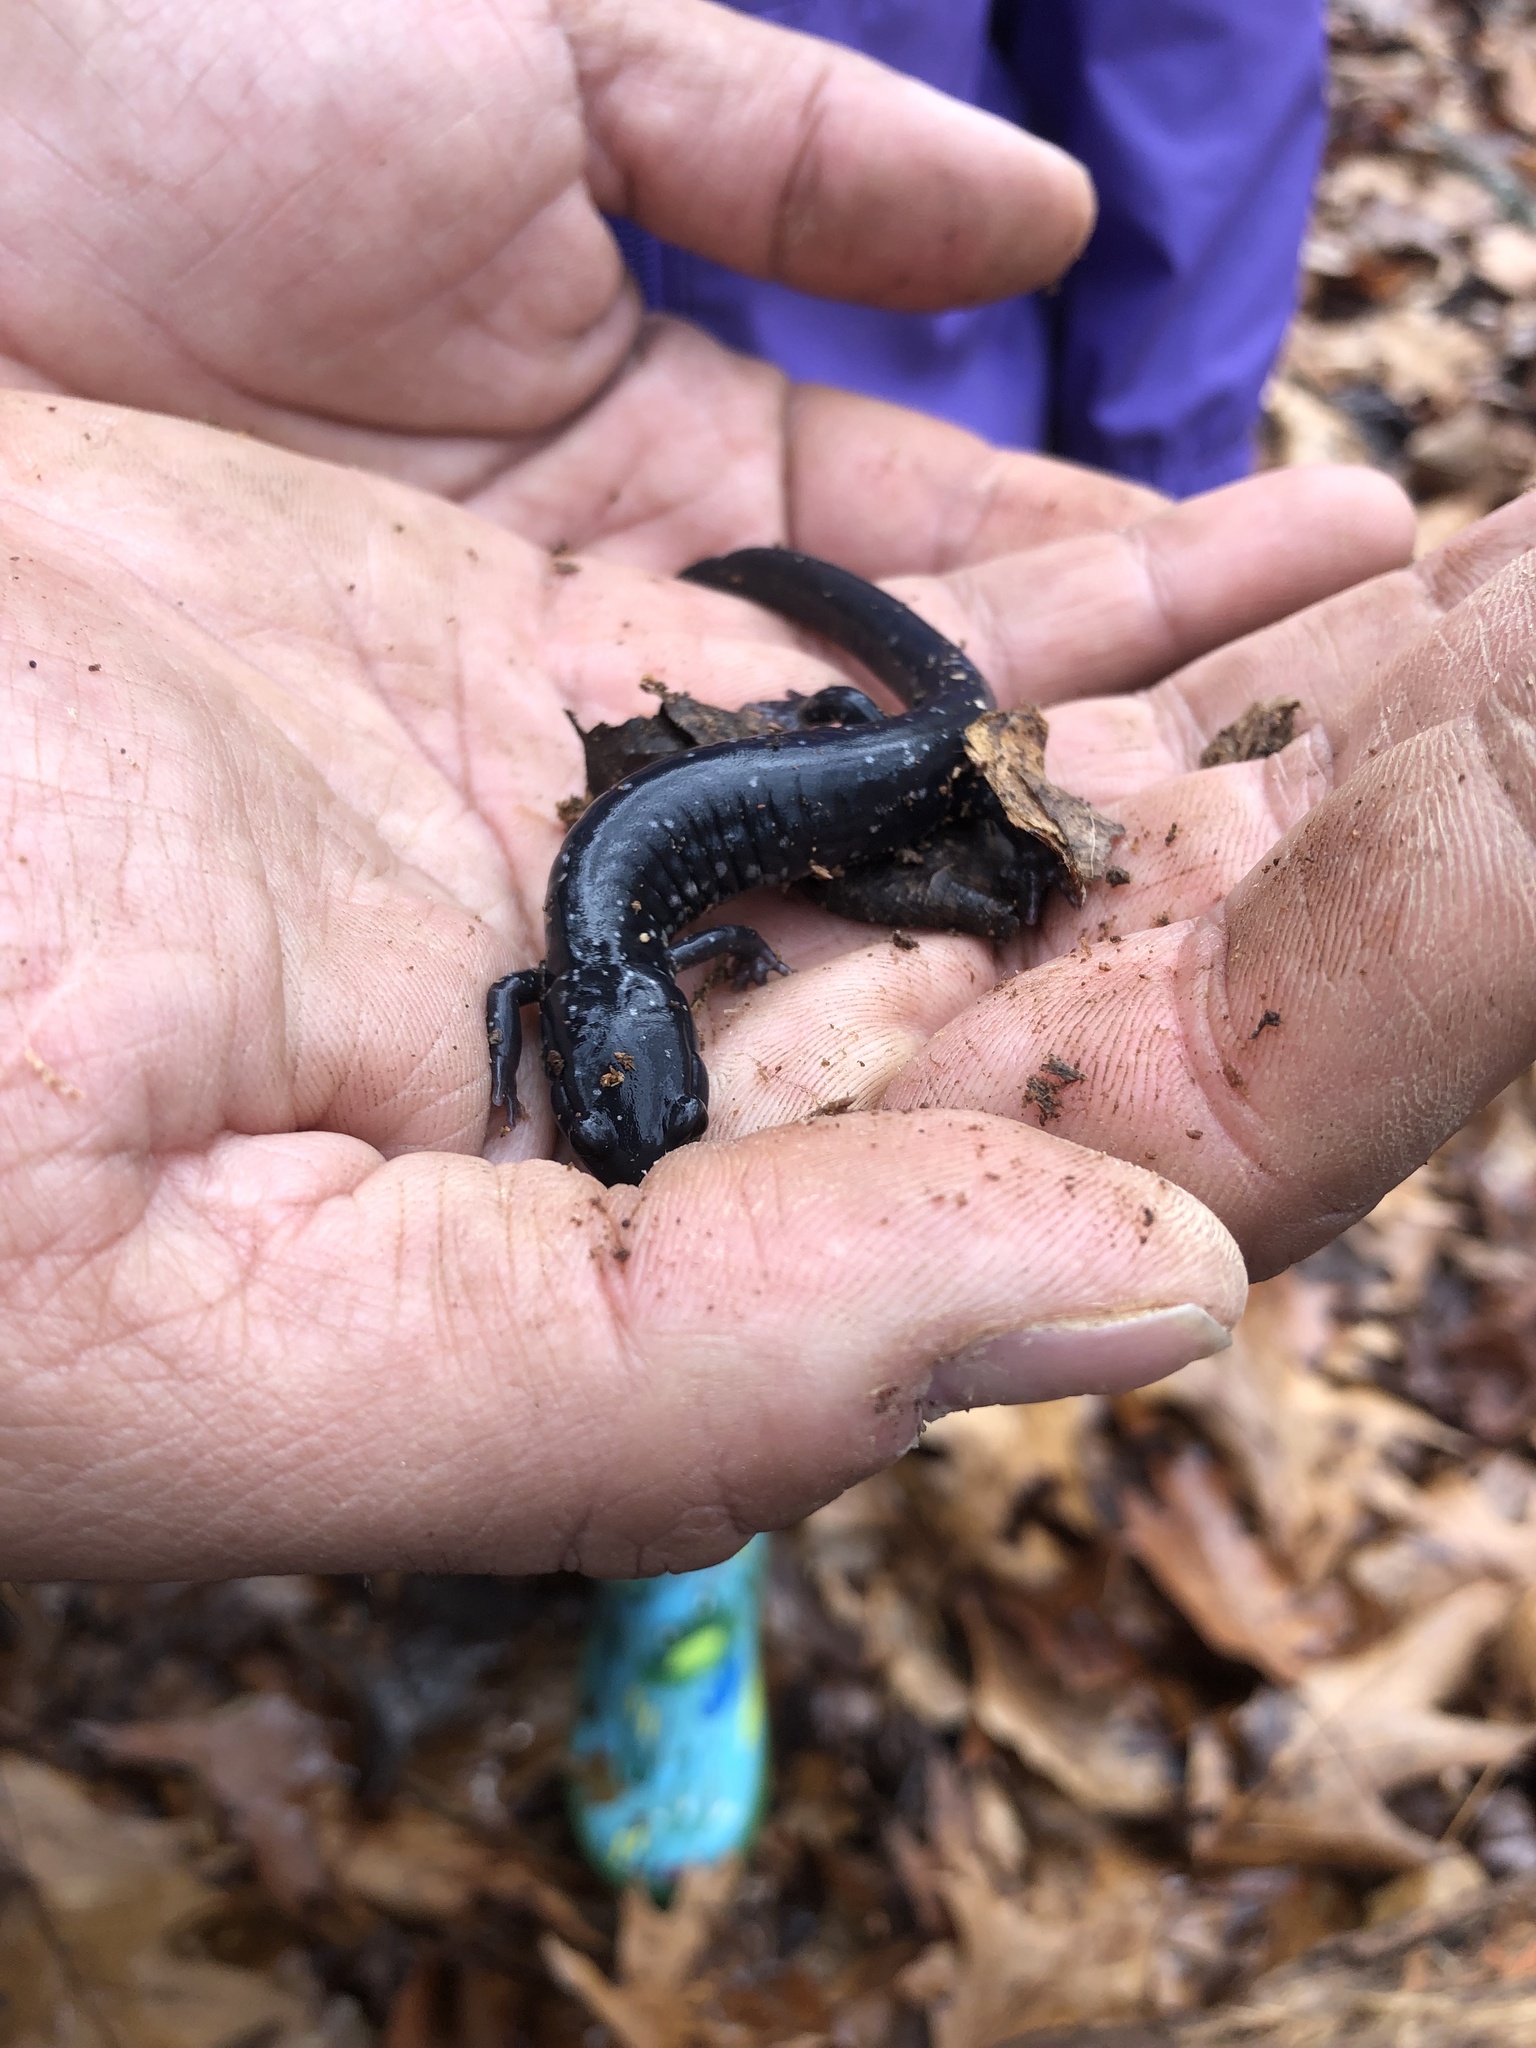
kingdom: Animalia
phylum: Chordata
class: Amphibia
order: Caudata
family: Plethodontidae
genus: Plethodon
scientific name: Plethodon cylindraceus
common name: White-spotted slimy salamander
